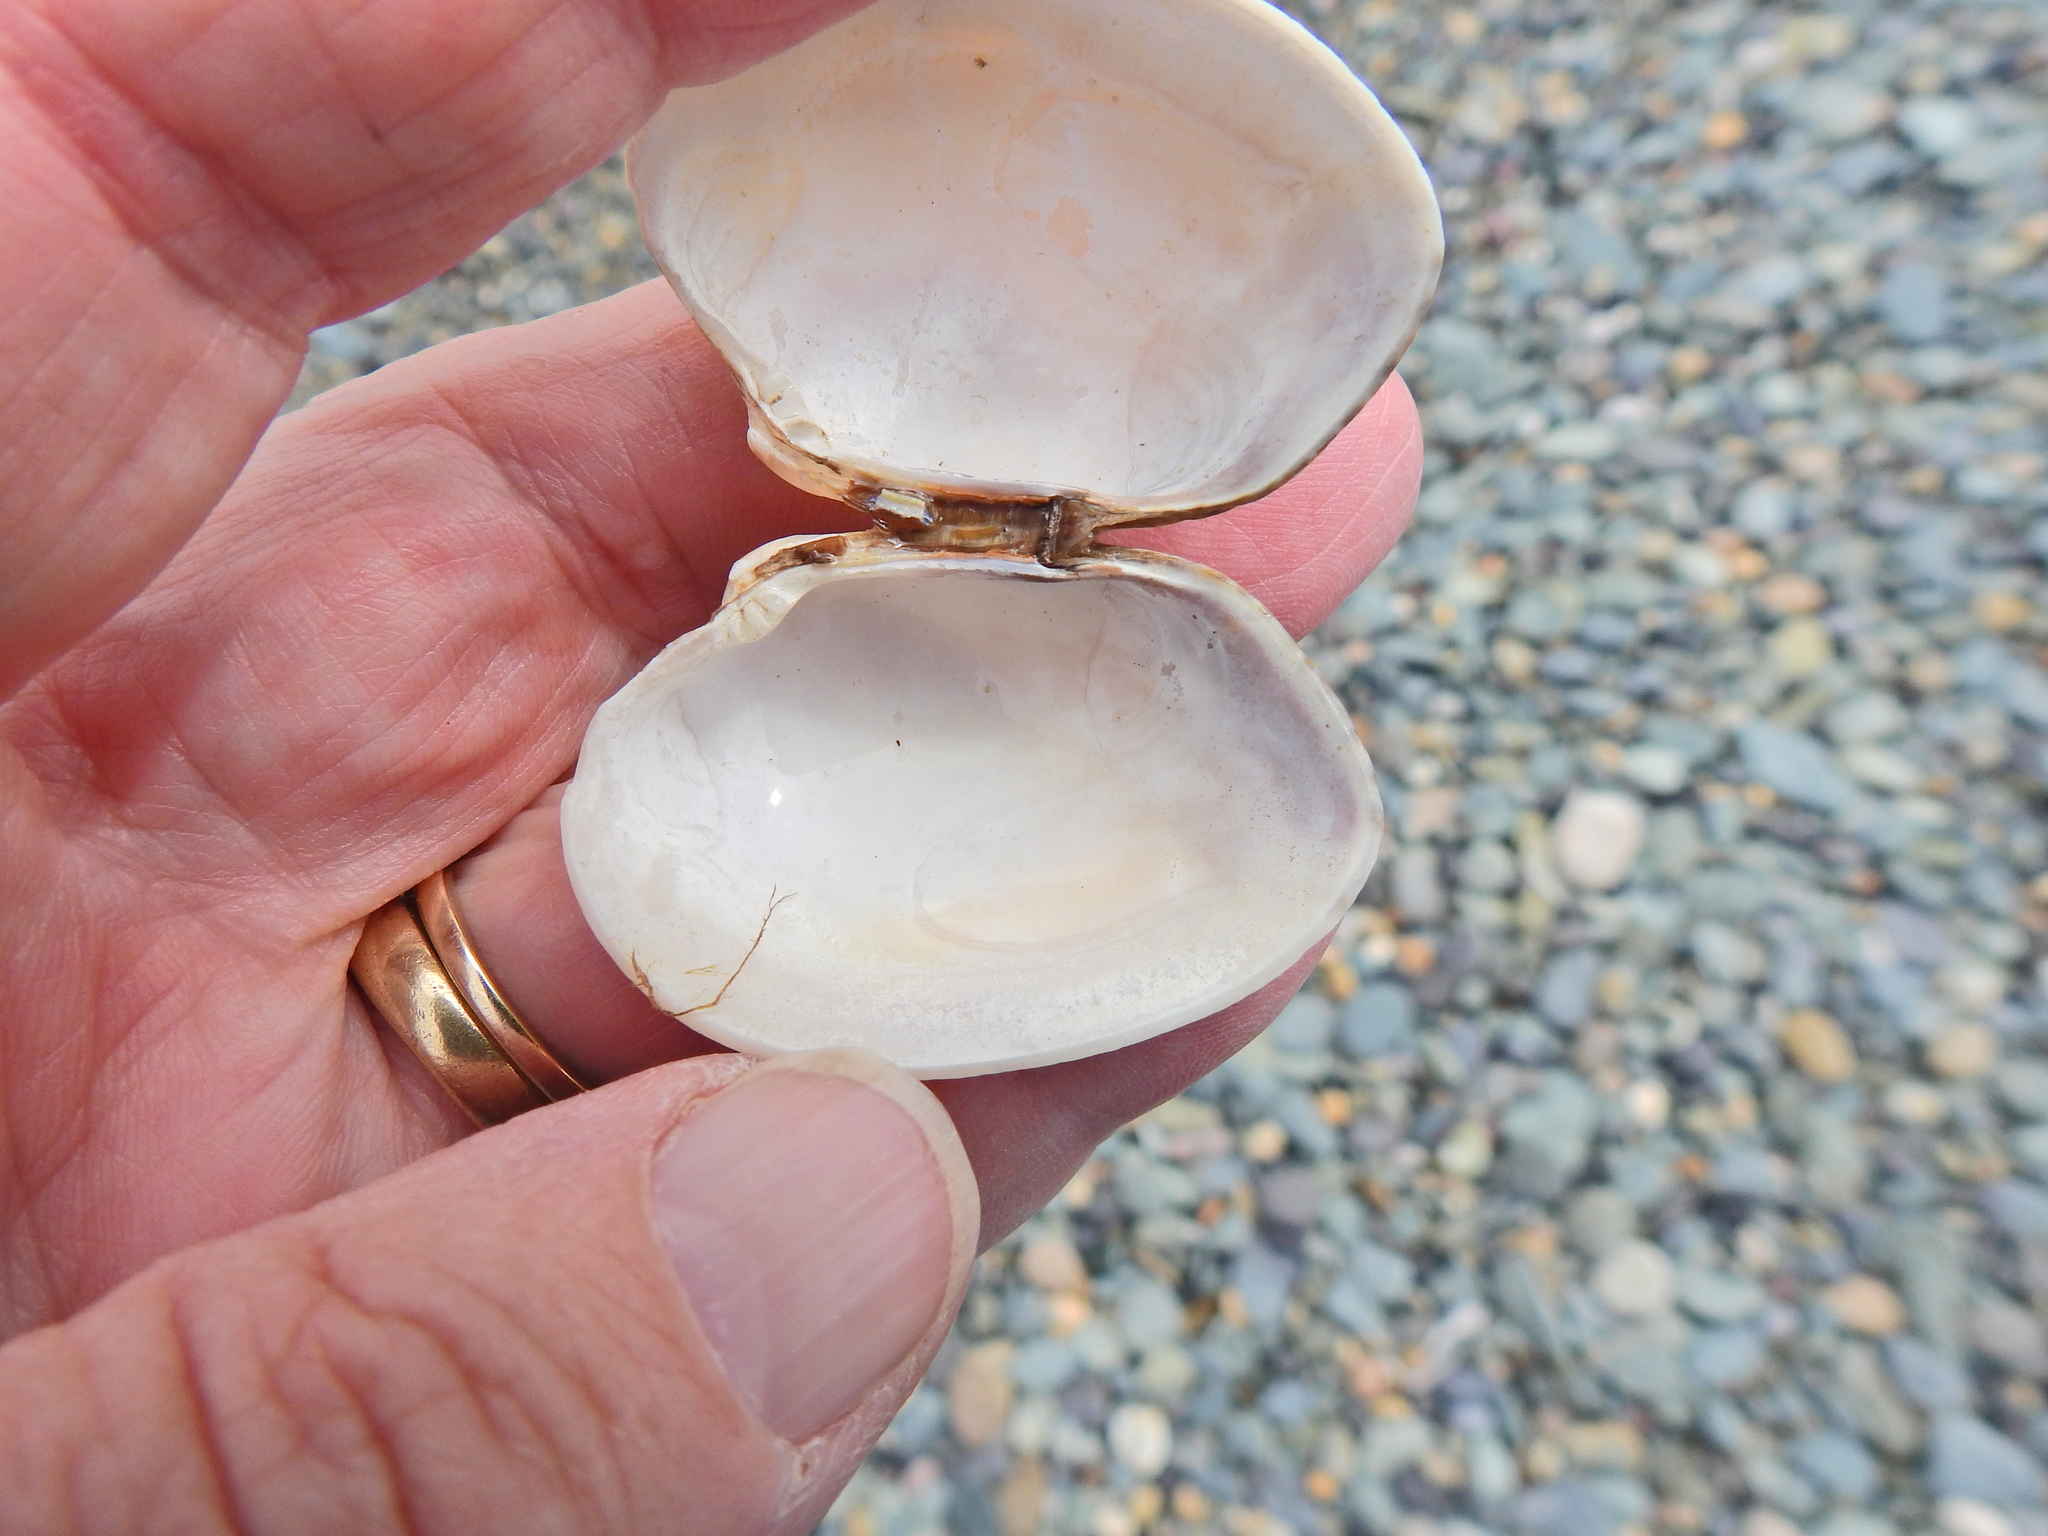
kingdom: Animalia
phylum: Mollusca
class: Bivalvia
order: Venerida
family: Veneridae
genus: Venerupis
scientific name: Venerupis corrugata
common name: Pullet carpet shell
